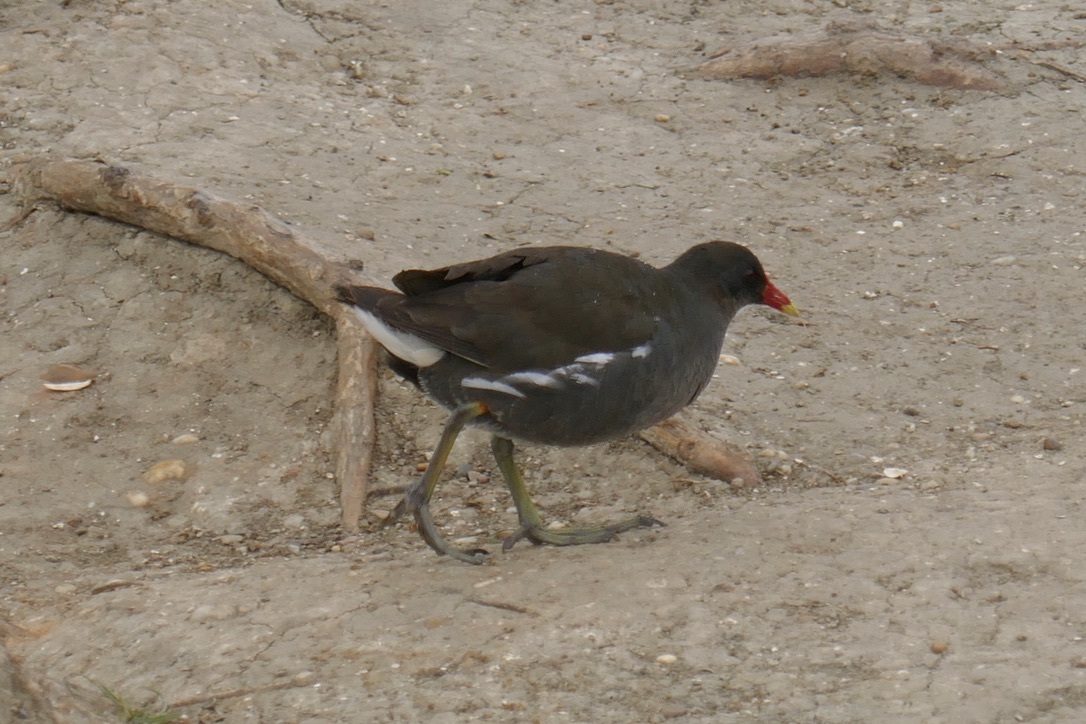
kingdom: Animalia
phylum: Chordata
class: Aves
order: Gruiformes
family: Rallidae
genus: Gallinula
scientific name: Gallinula chloropus
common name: Common moorhen
